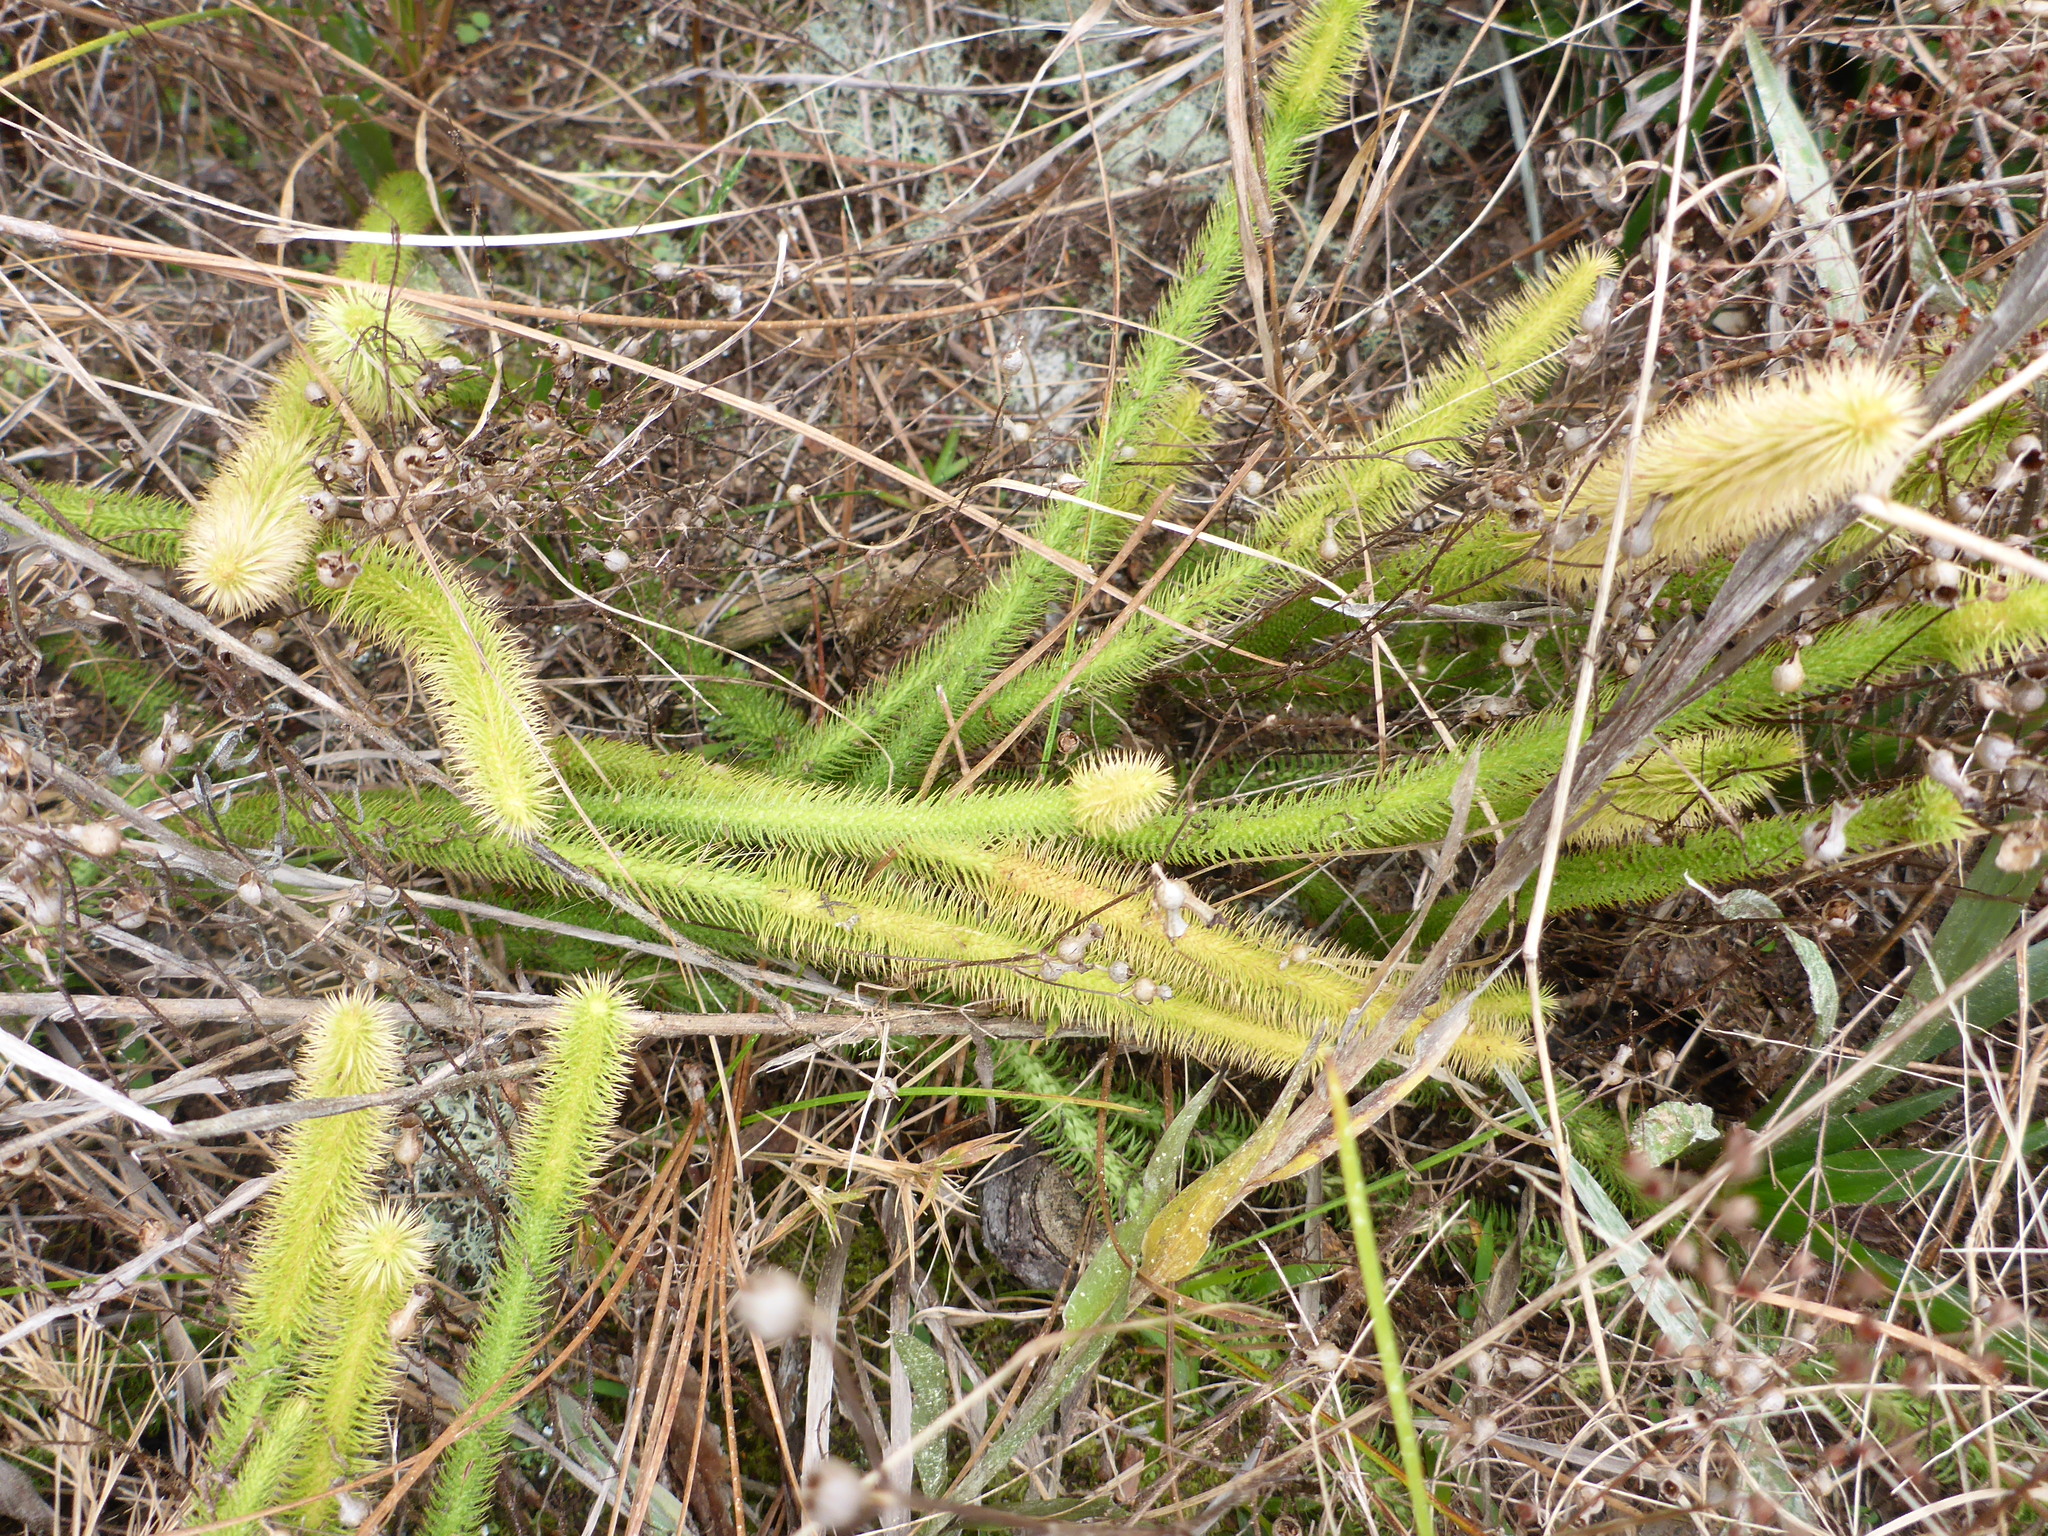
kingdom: Plantae
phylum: Tracheophyta
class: Lycopodiopsida
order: Lycopodiales
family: Lycopodiaceae
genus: Lycopodiella
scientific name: Lycopodiella alopecuroides
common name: Foxtail clubmoss
